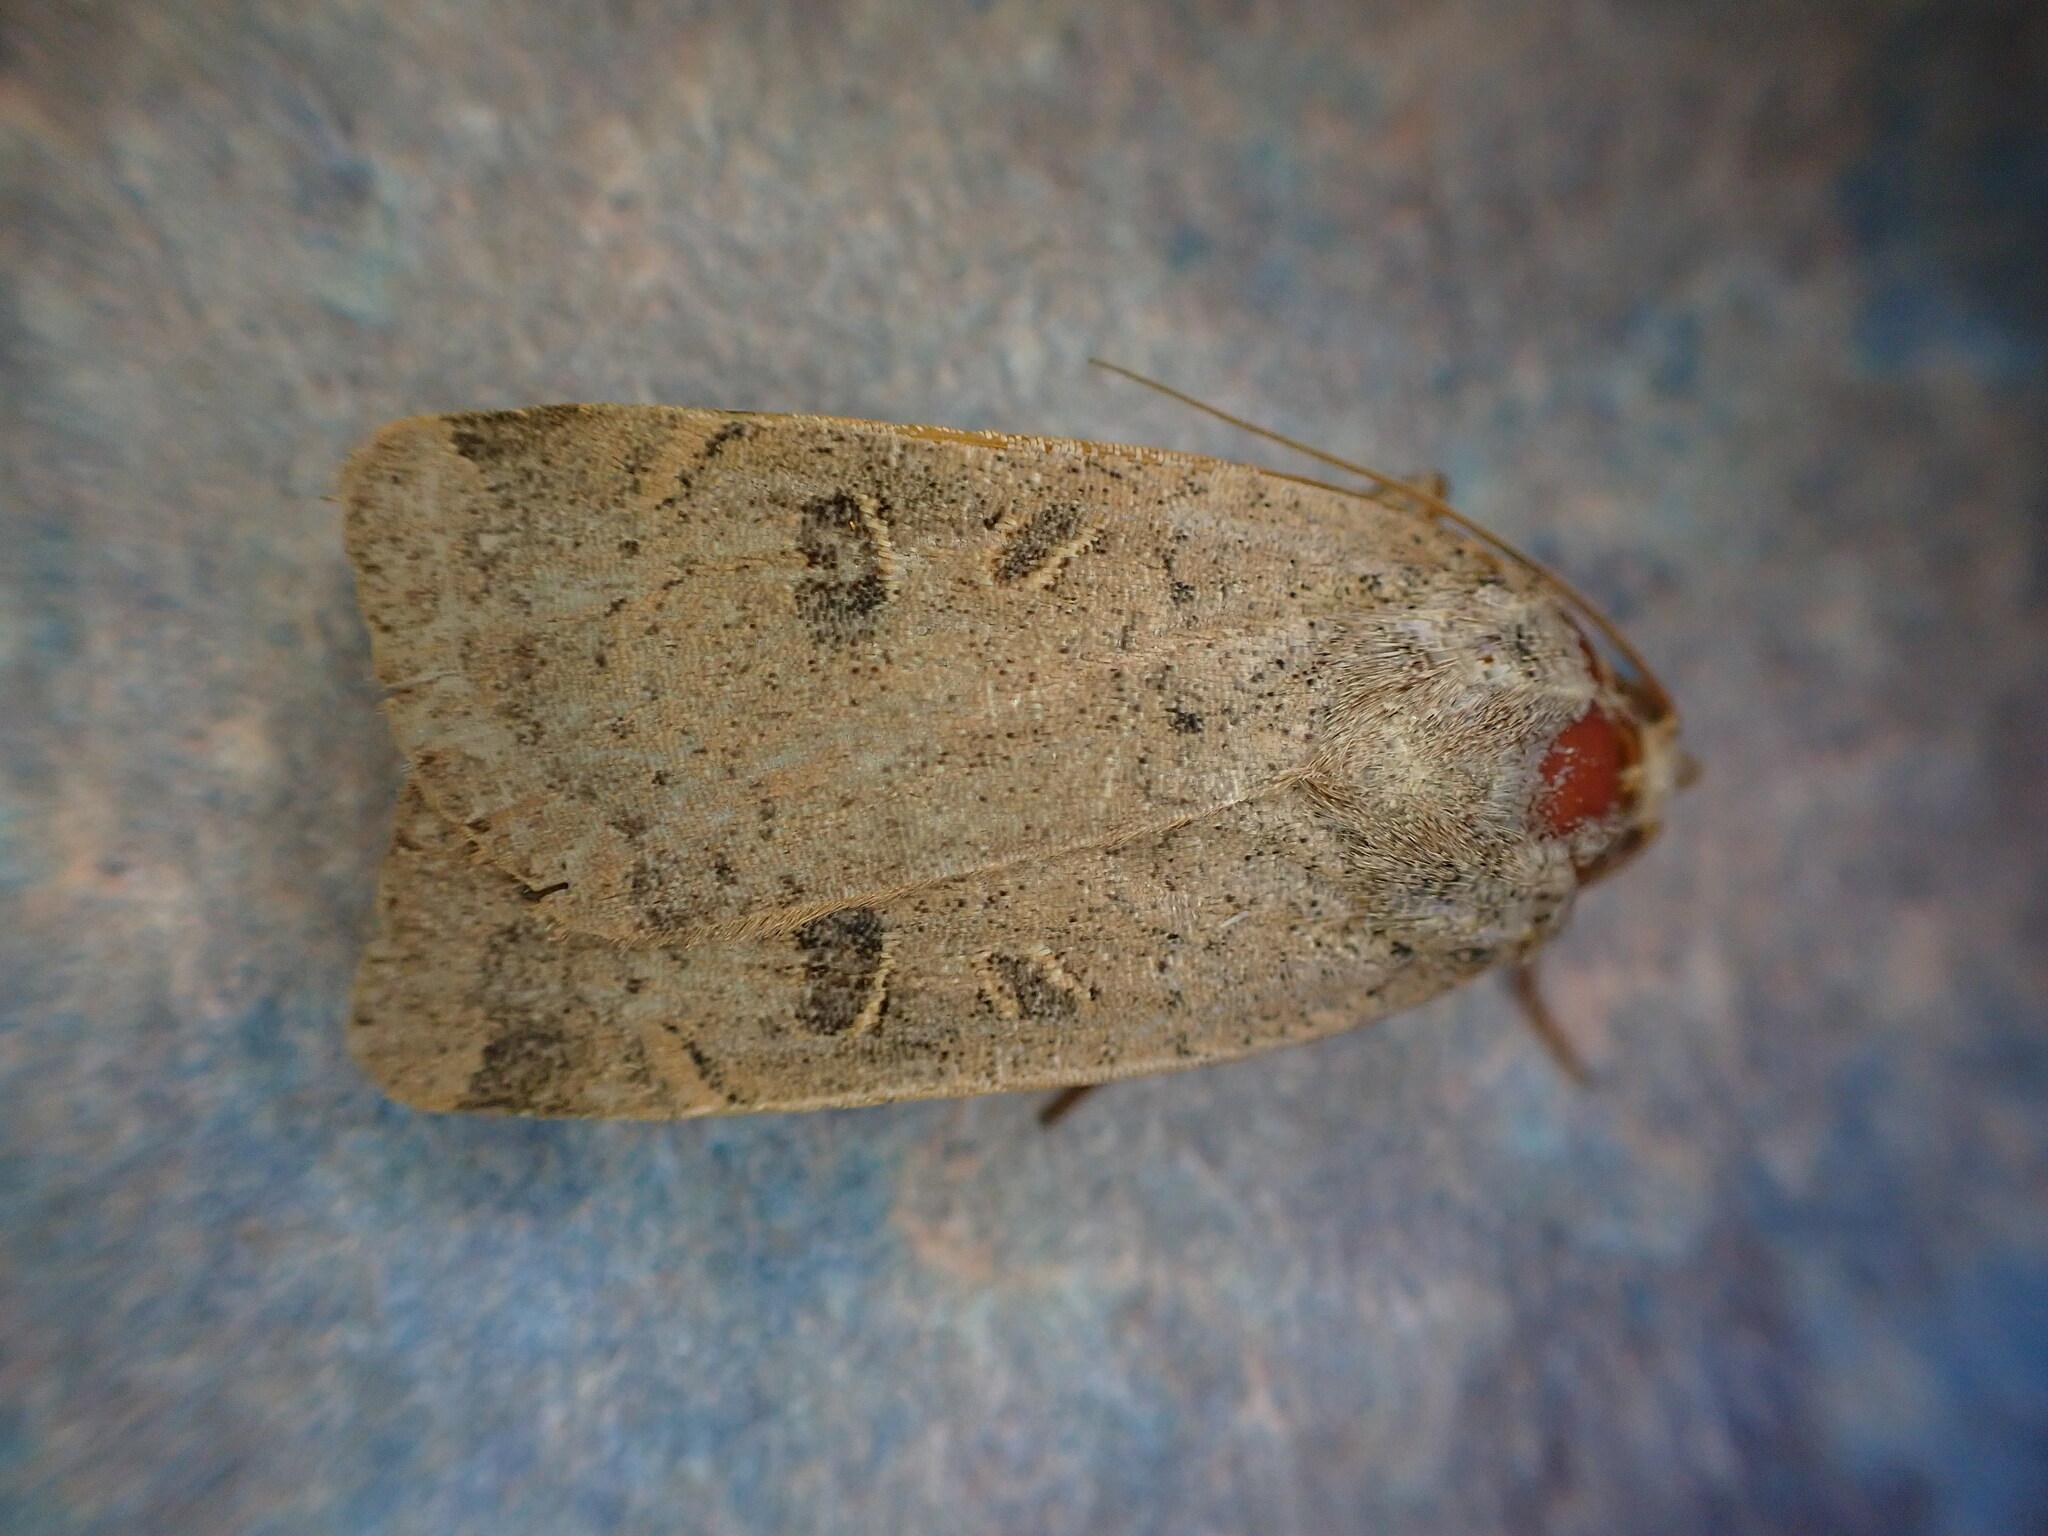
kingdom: Animalia
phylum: Arthropoda
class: Insecta
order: Lepidoptera
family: Noctuidae
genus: Noctua
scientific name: Noctua comes
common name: Lesser yellow underwing
